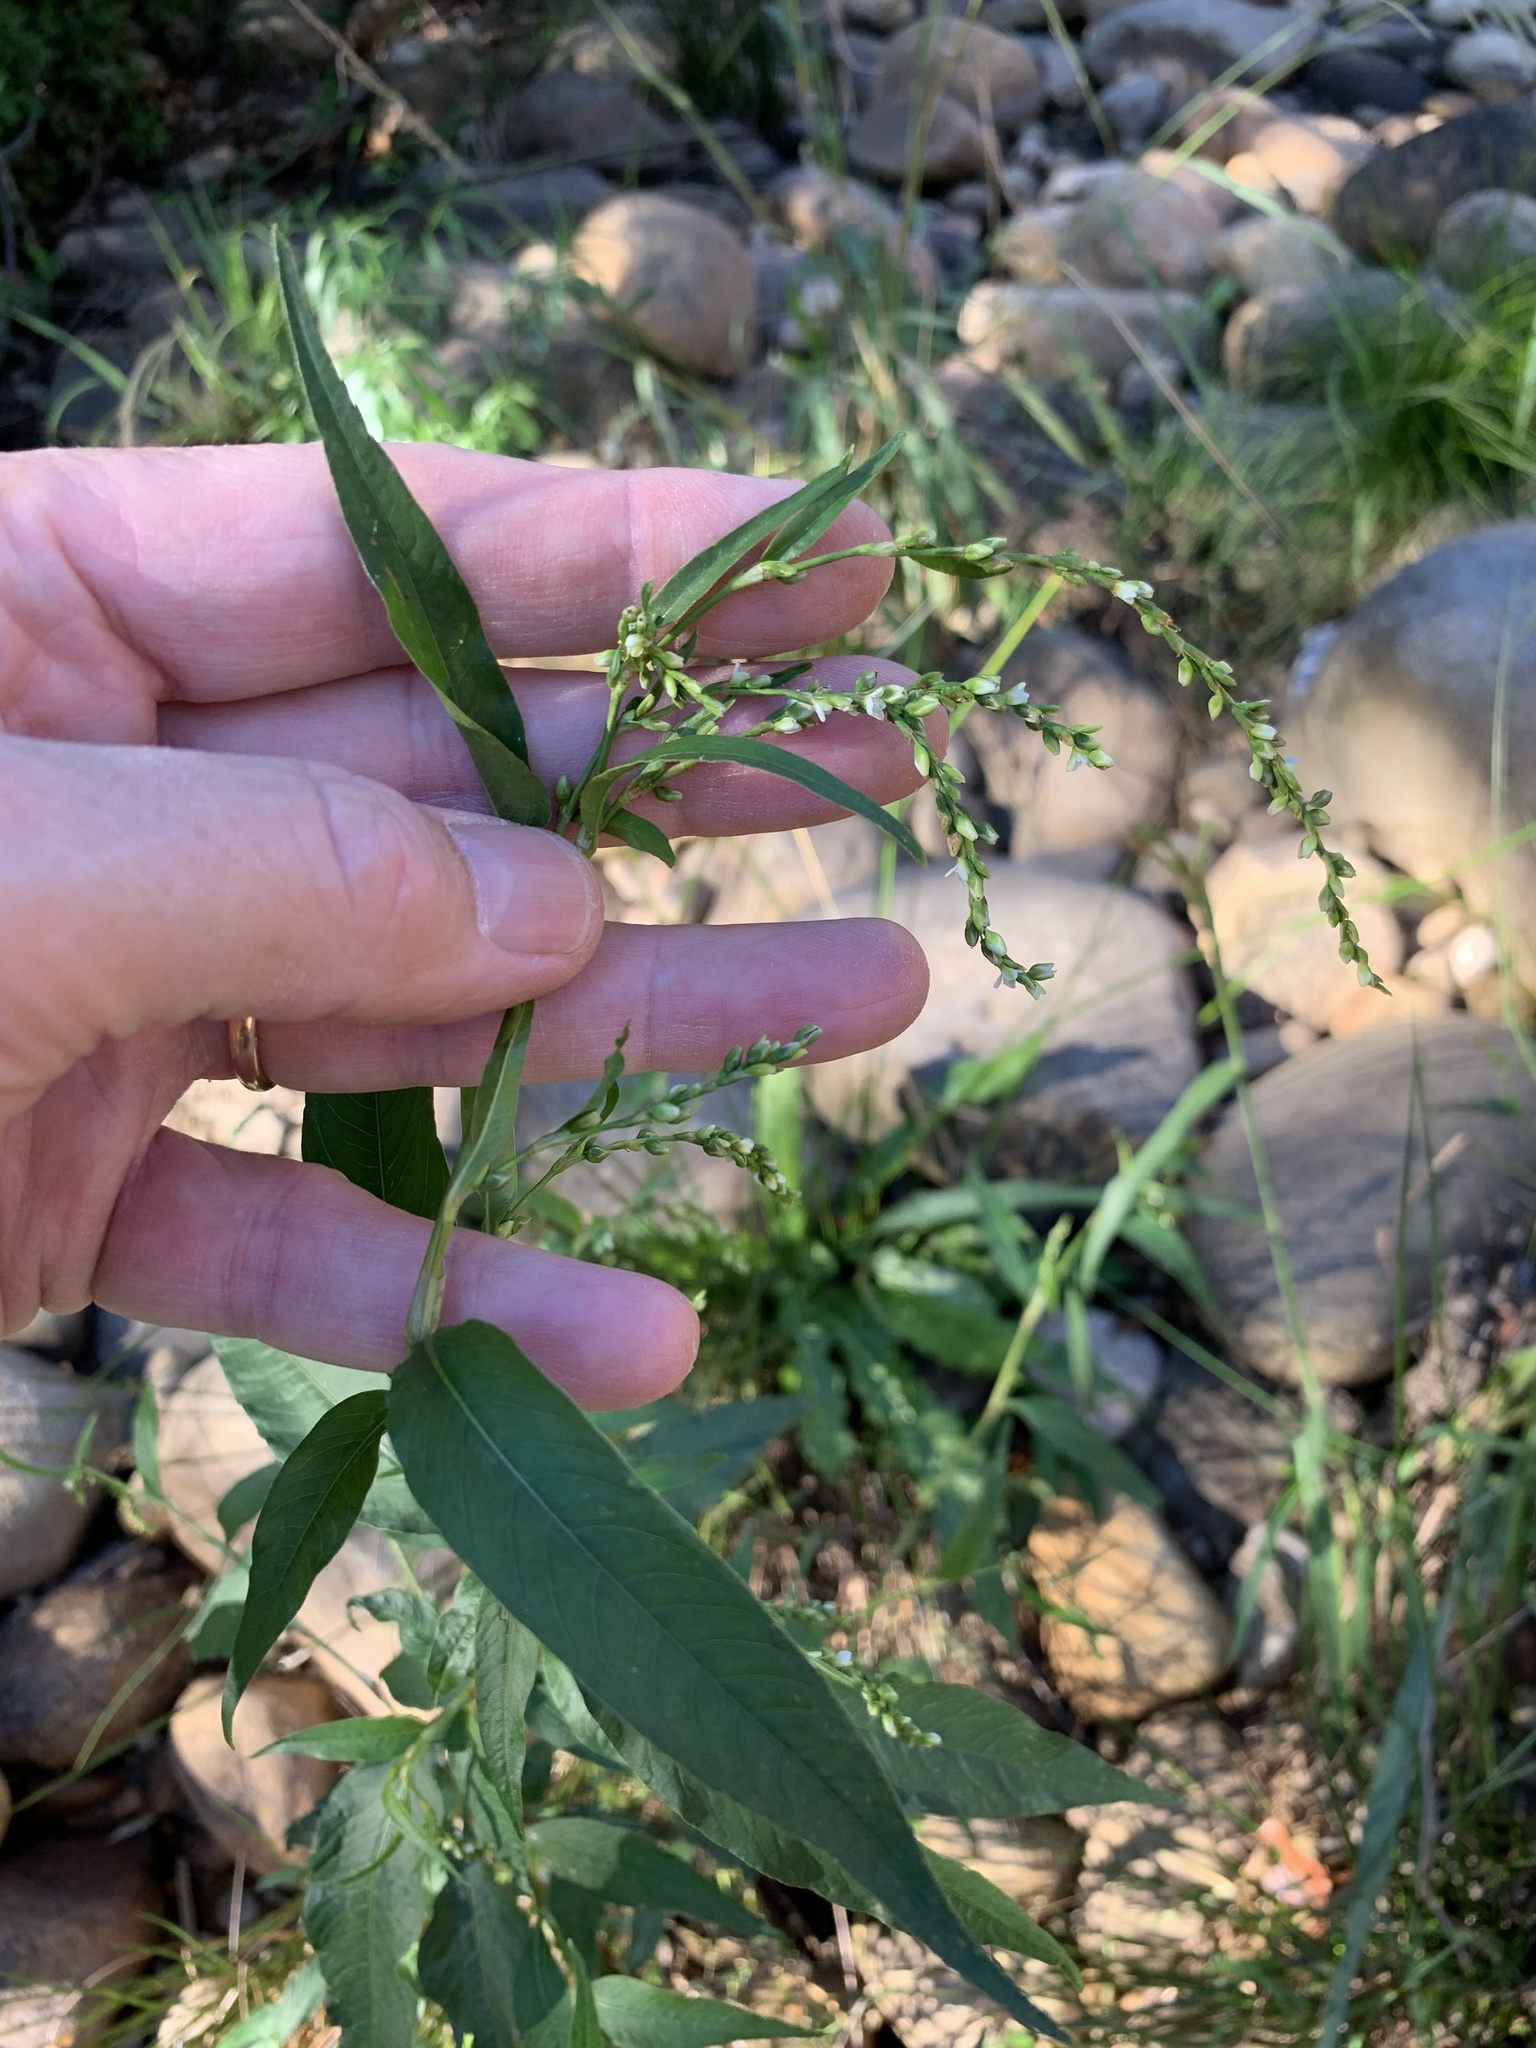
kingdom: Plantae
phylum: Tracheophyta
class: Magnoliopsida
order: Caryophyllales
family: Polygonaceae
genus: Persicaria
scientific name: Persicaria hydropiper
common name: Water-pepper
